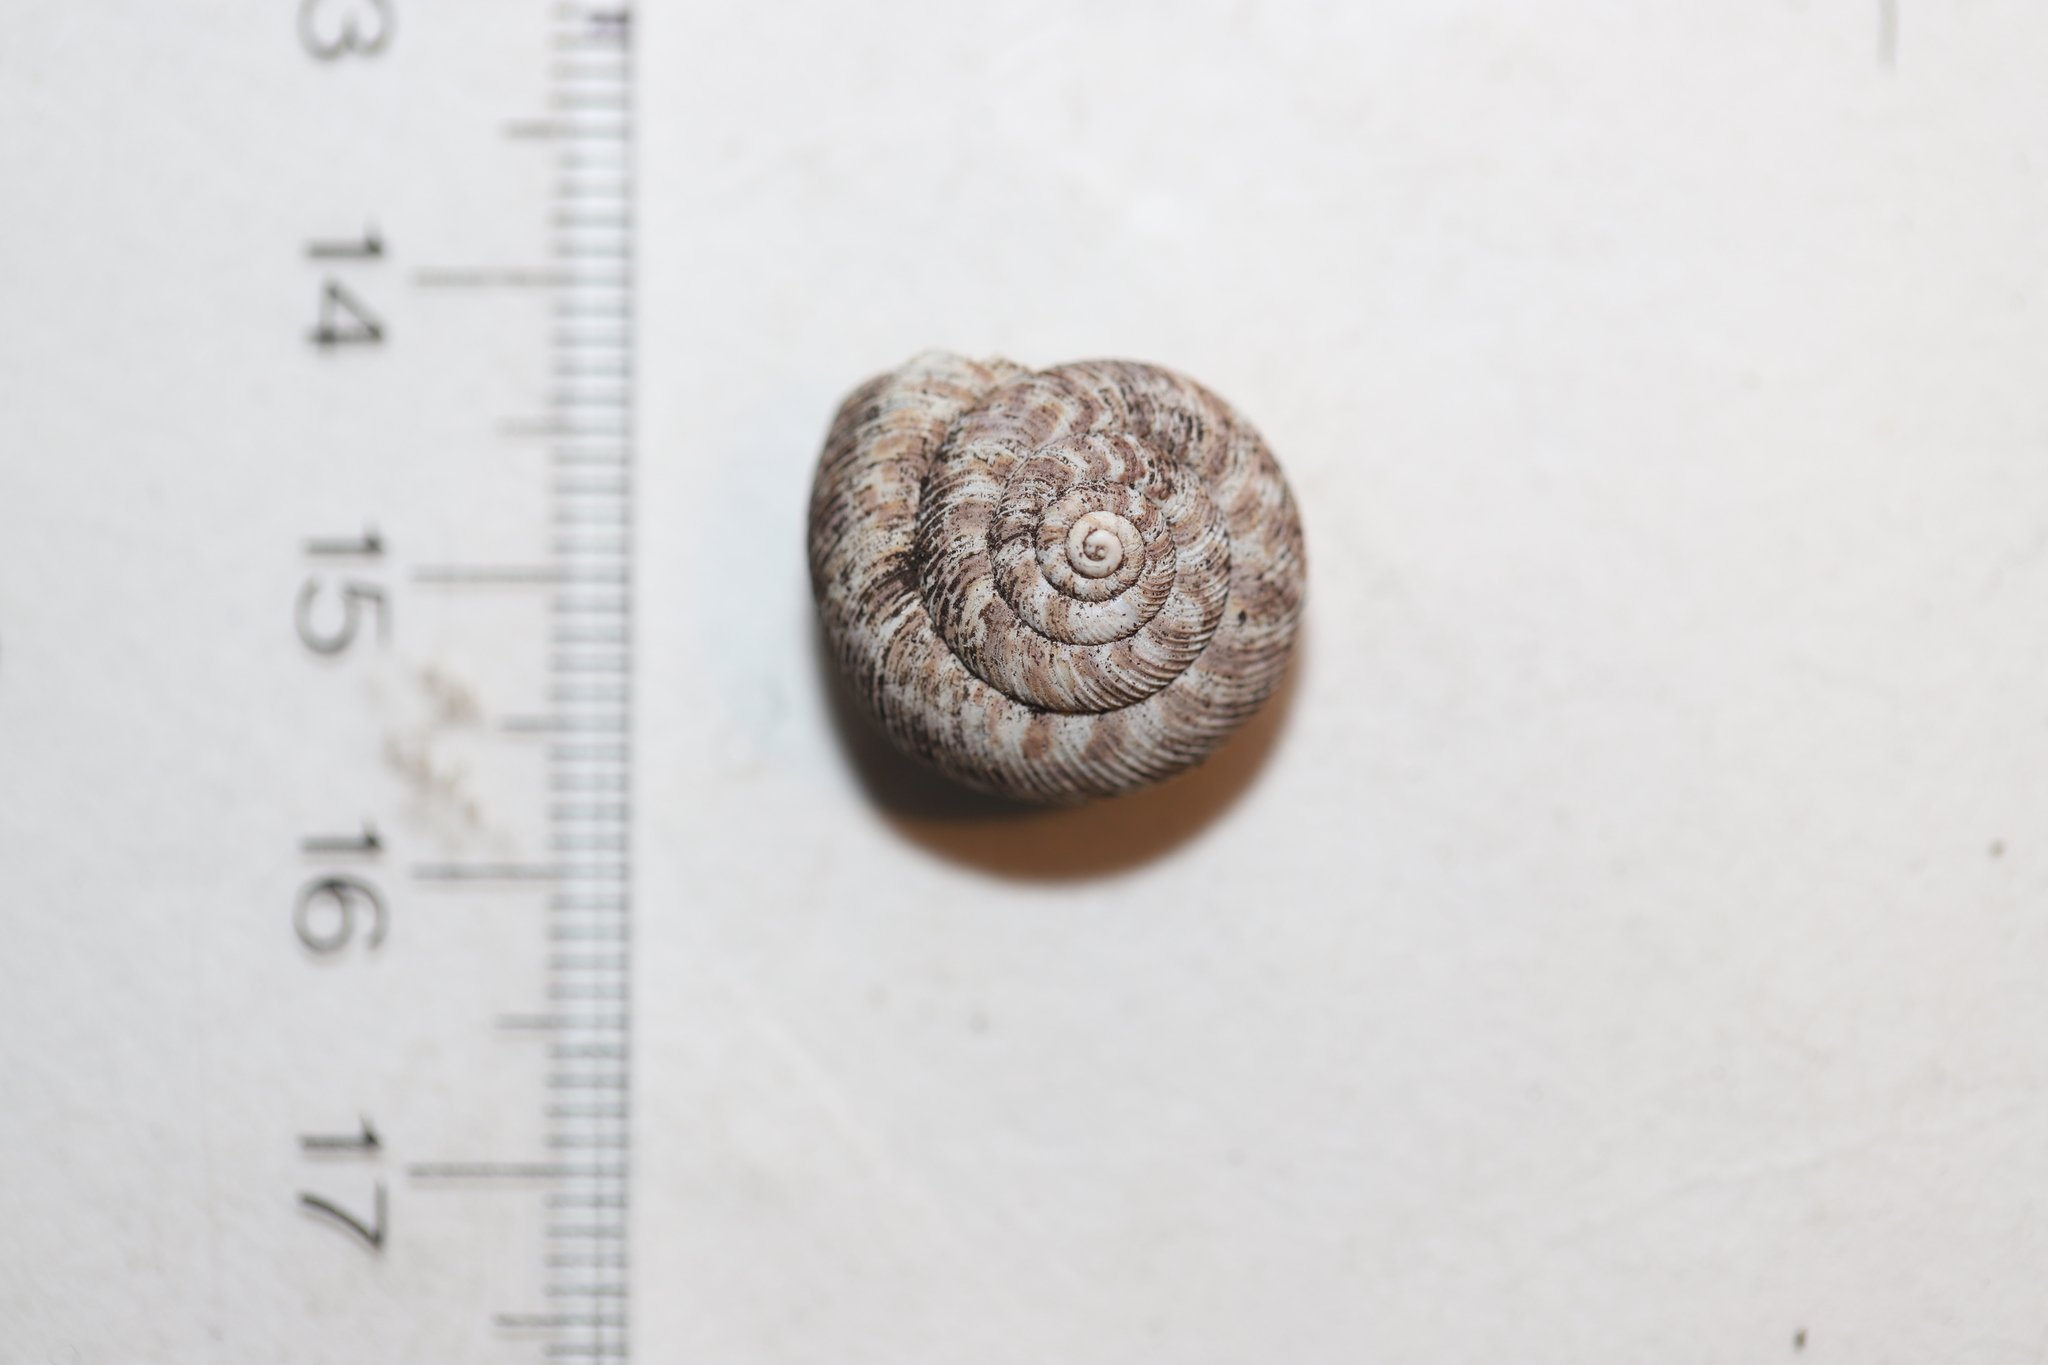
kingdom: Animalia
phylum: Mollusca
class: Gastropoda
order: Stylommatophora
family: Discidae
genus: Anguispira
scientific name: Anguispira alternata
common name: Flamed tigersnail
